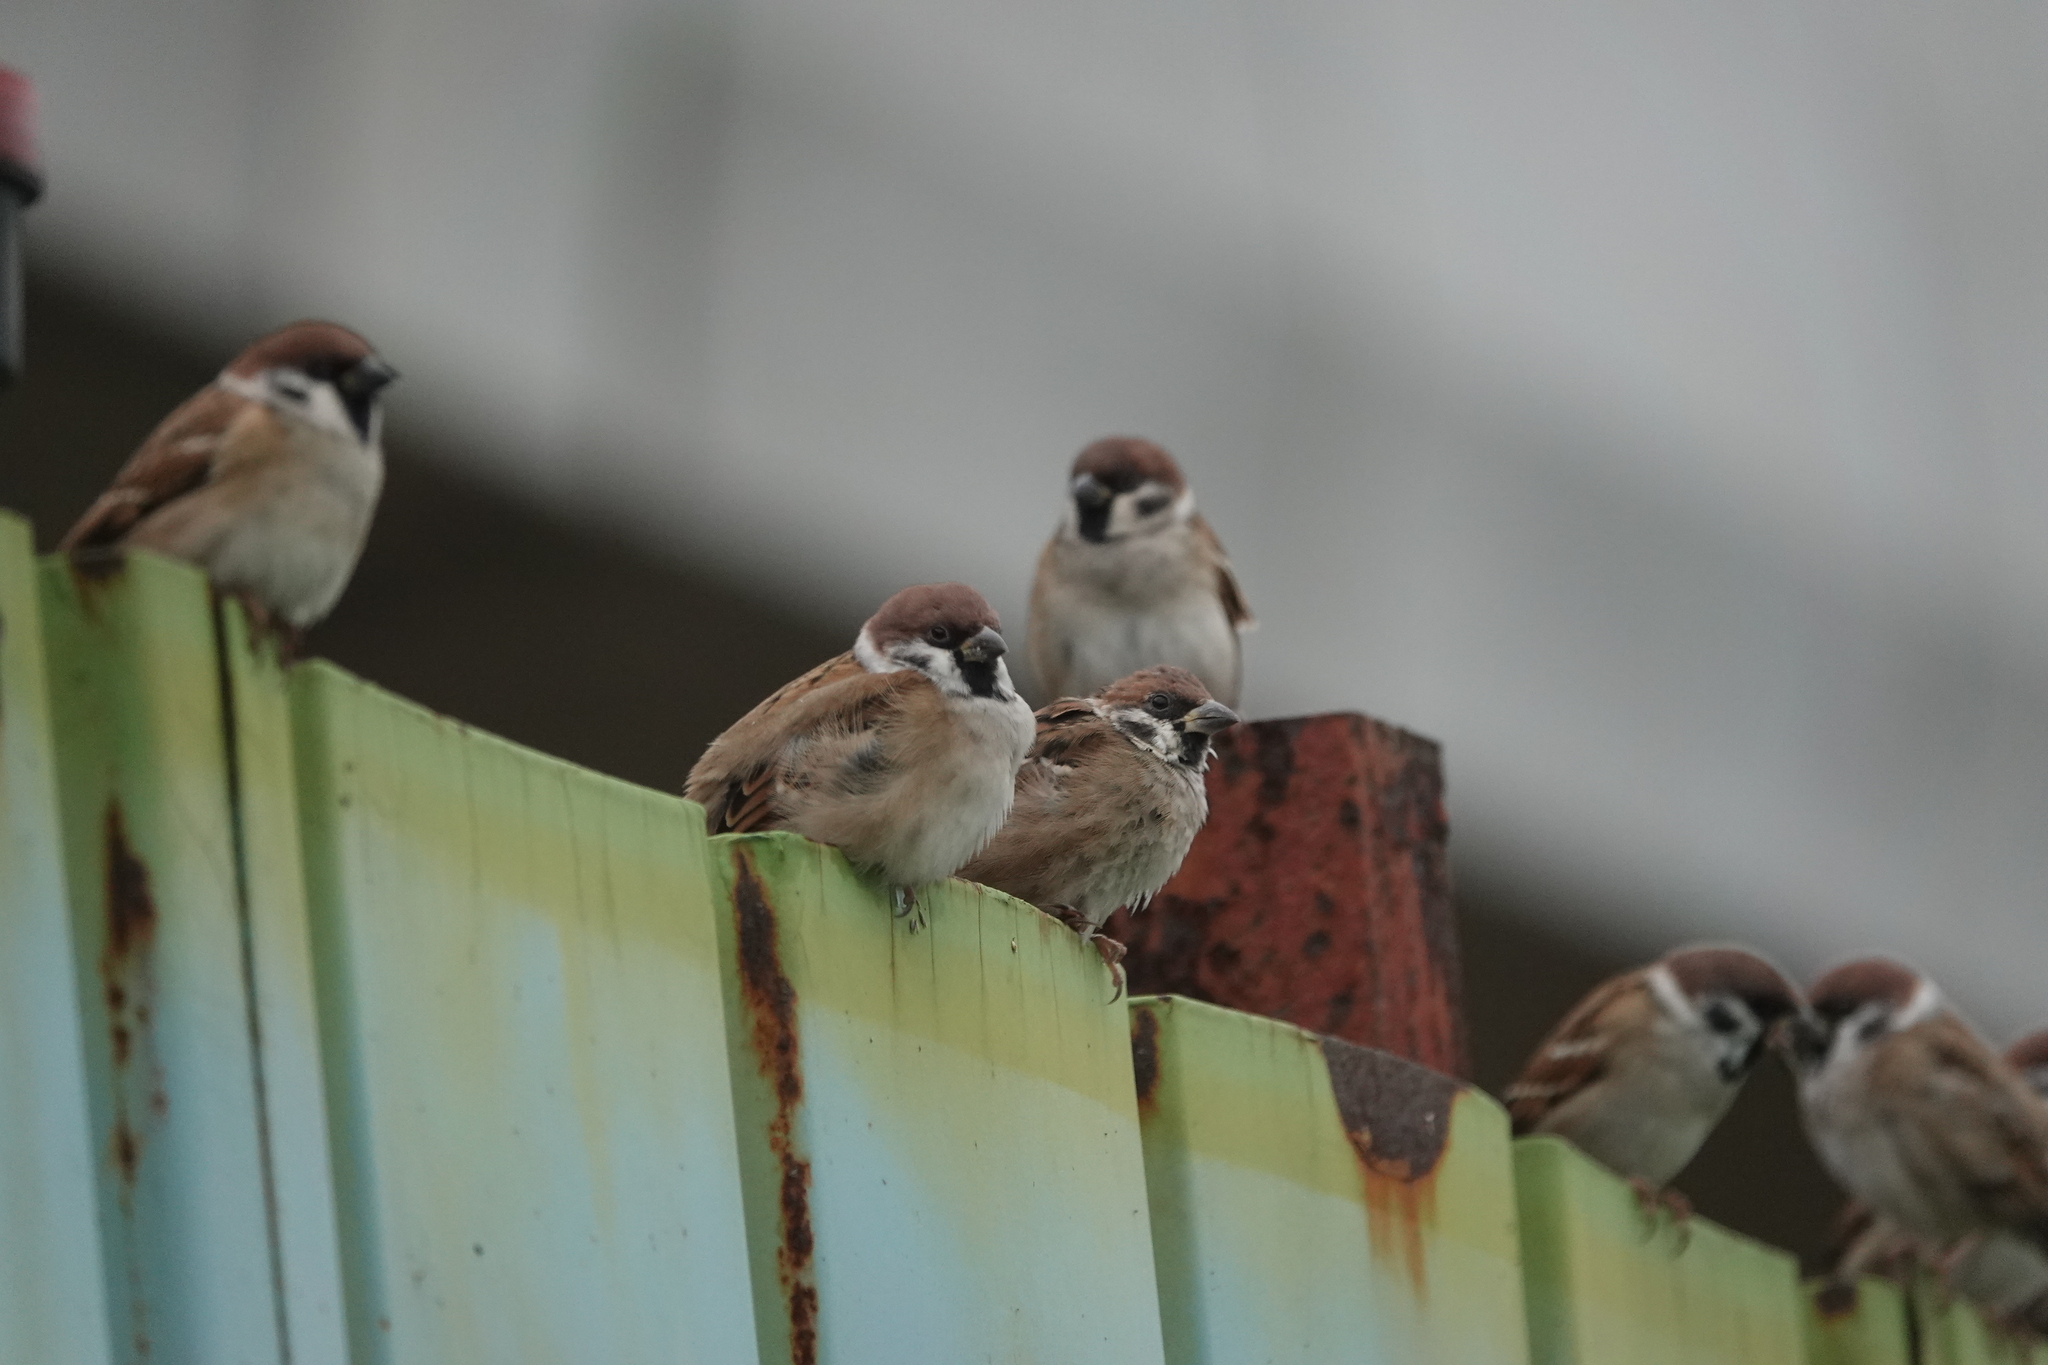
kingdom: Animalia
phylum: Chordata
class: Aves
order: Passeriformes
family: Passeridae
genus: Passer
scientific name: Passer montanus
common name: Eurasian tree sparrow
